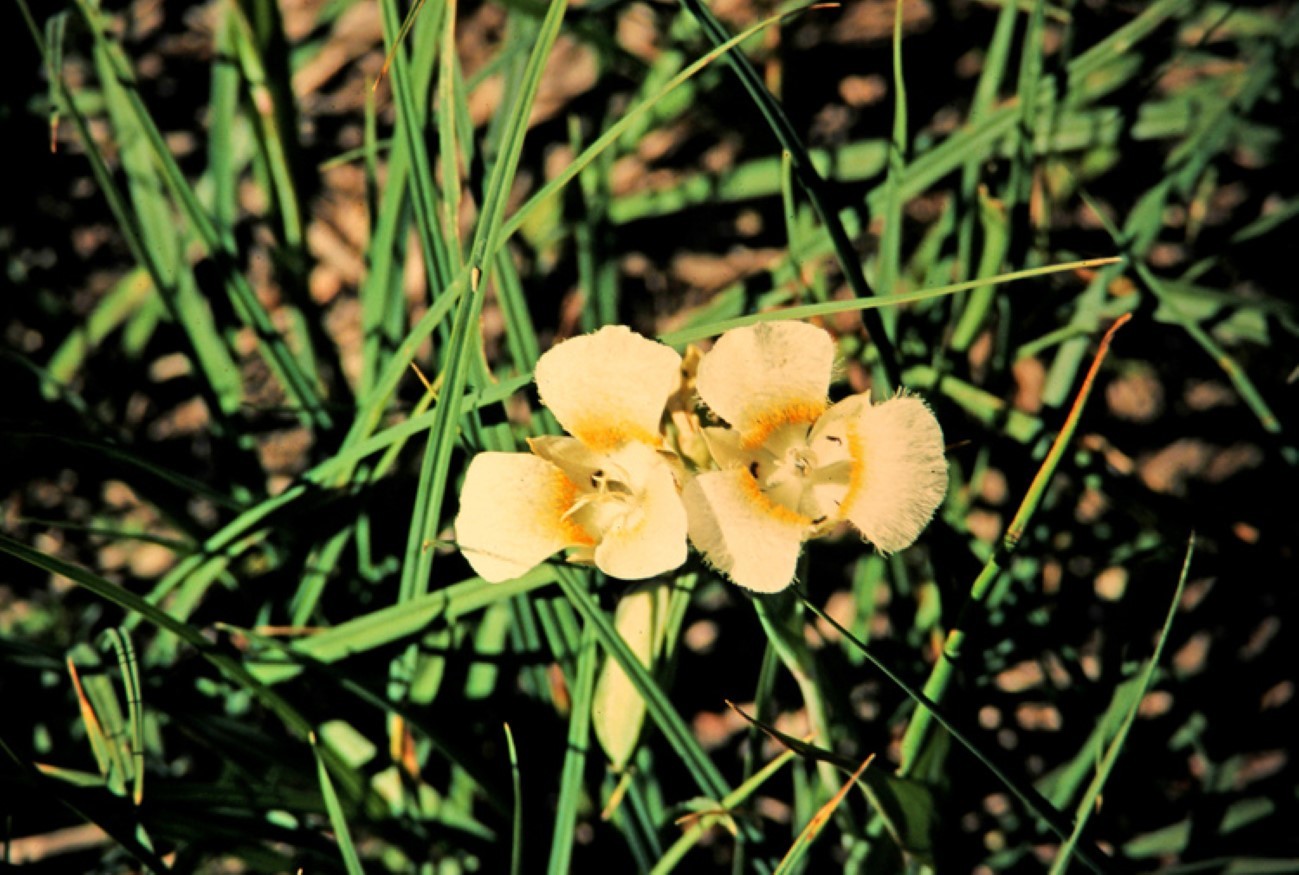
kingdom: Plantae
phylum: Tracheophyta
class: Liliopsida
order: Liliales
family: Liliaceae
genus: Calochortus
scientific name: Calochortus subalpinus
